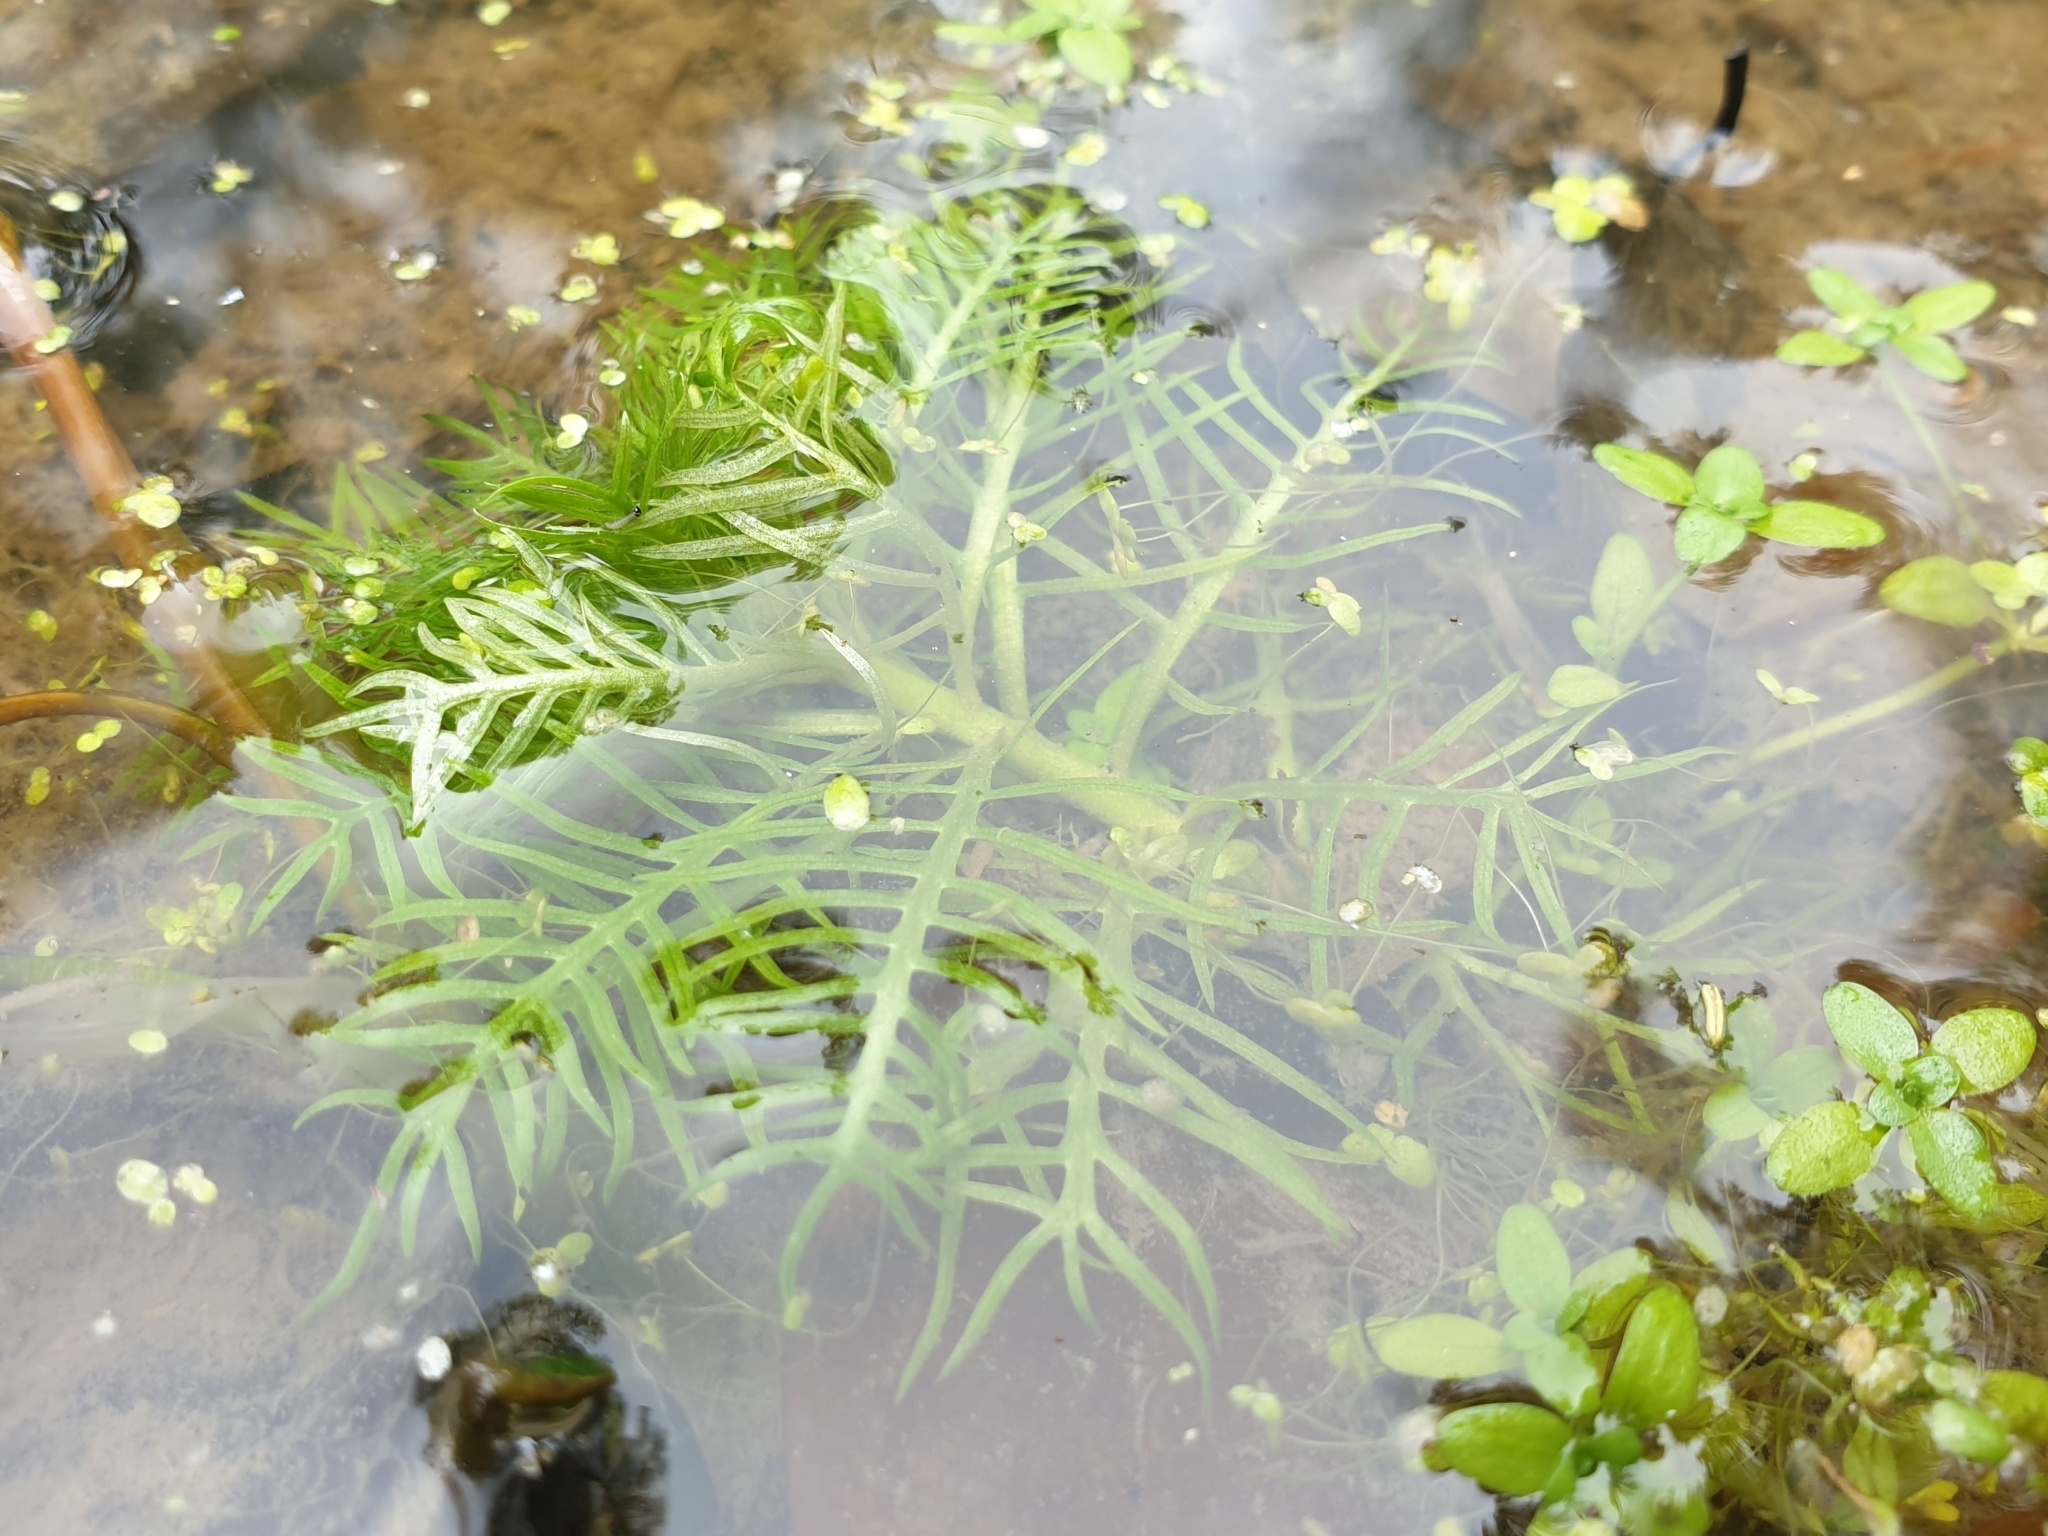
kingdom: Plantae
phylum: Tracheophyta
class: Magnoliopsida
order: Ericales
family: Primulaceae
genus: Hottonia
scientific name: Hottonia palustris
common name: Water-violet
